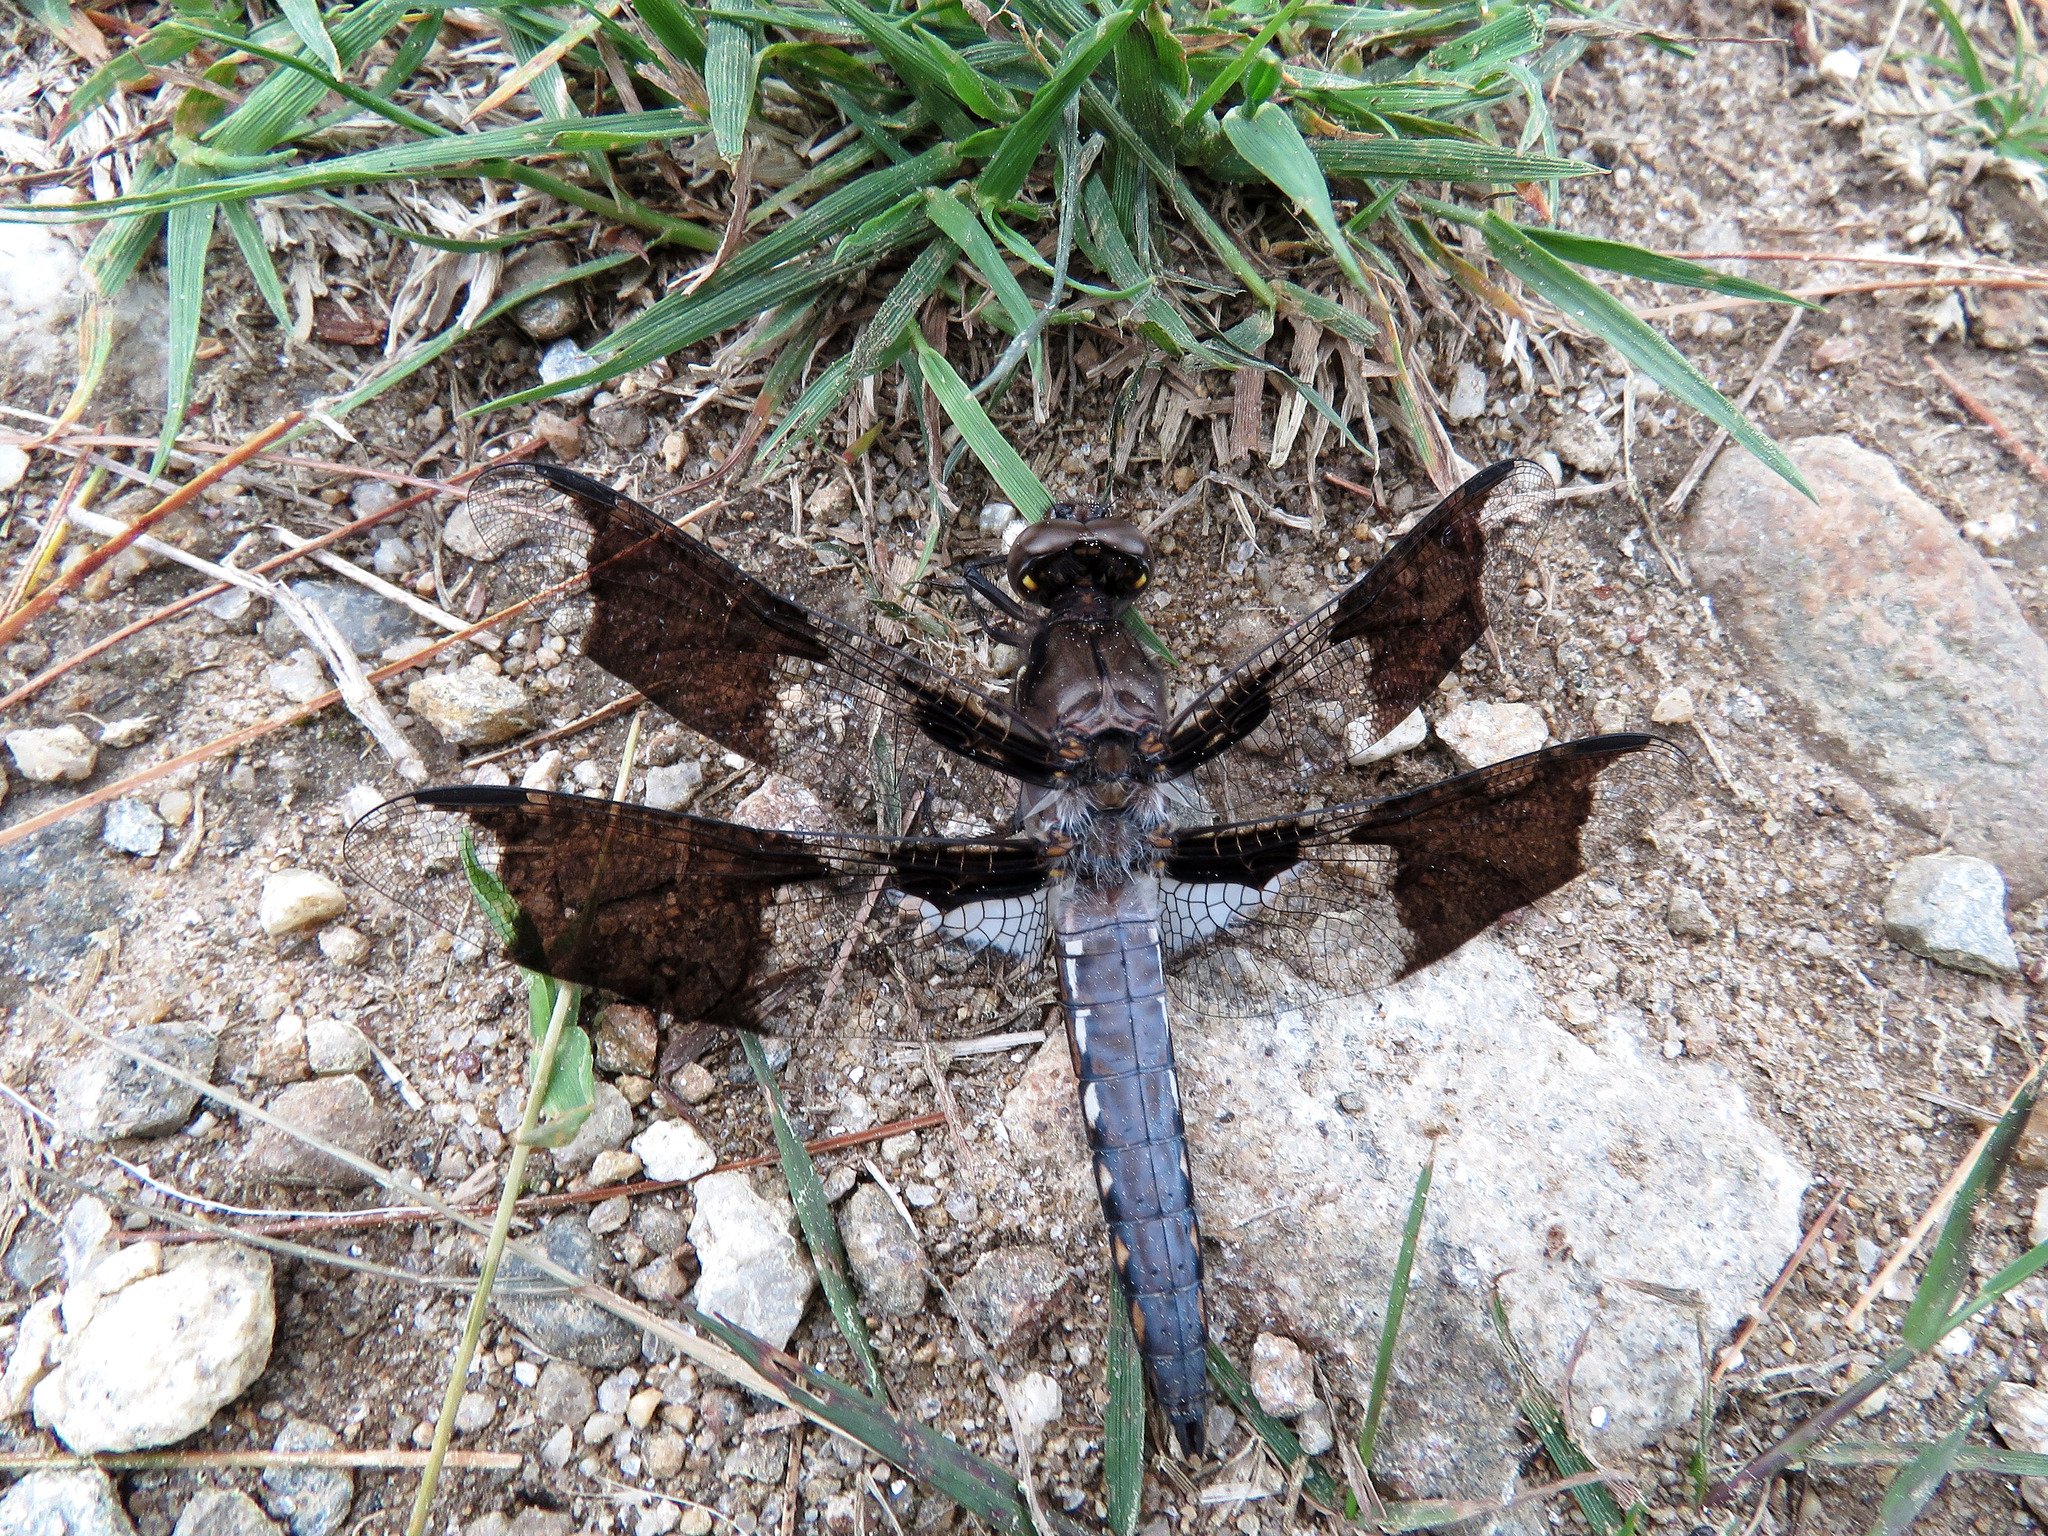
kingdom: Animalia
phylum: Arthropoda
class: Insecta
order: Odonata
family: Libellulidae
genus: Plathemis
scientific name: Plathemis lydia
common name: Common whitetail
